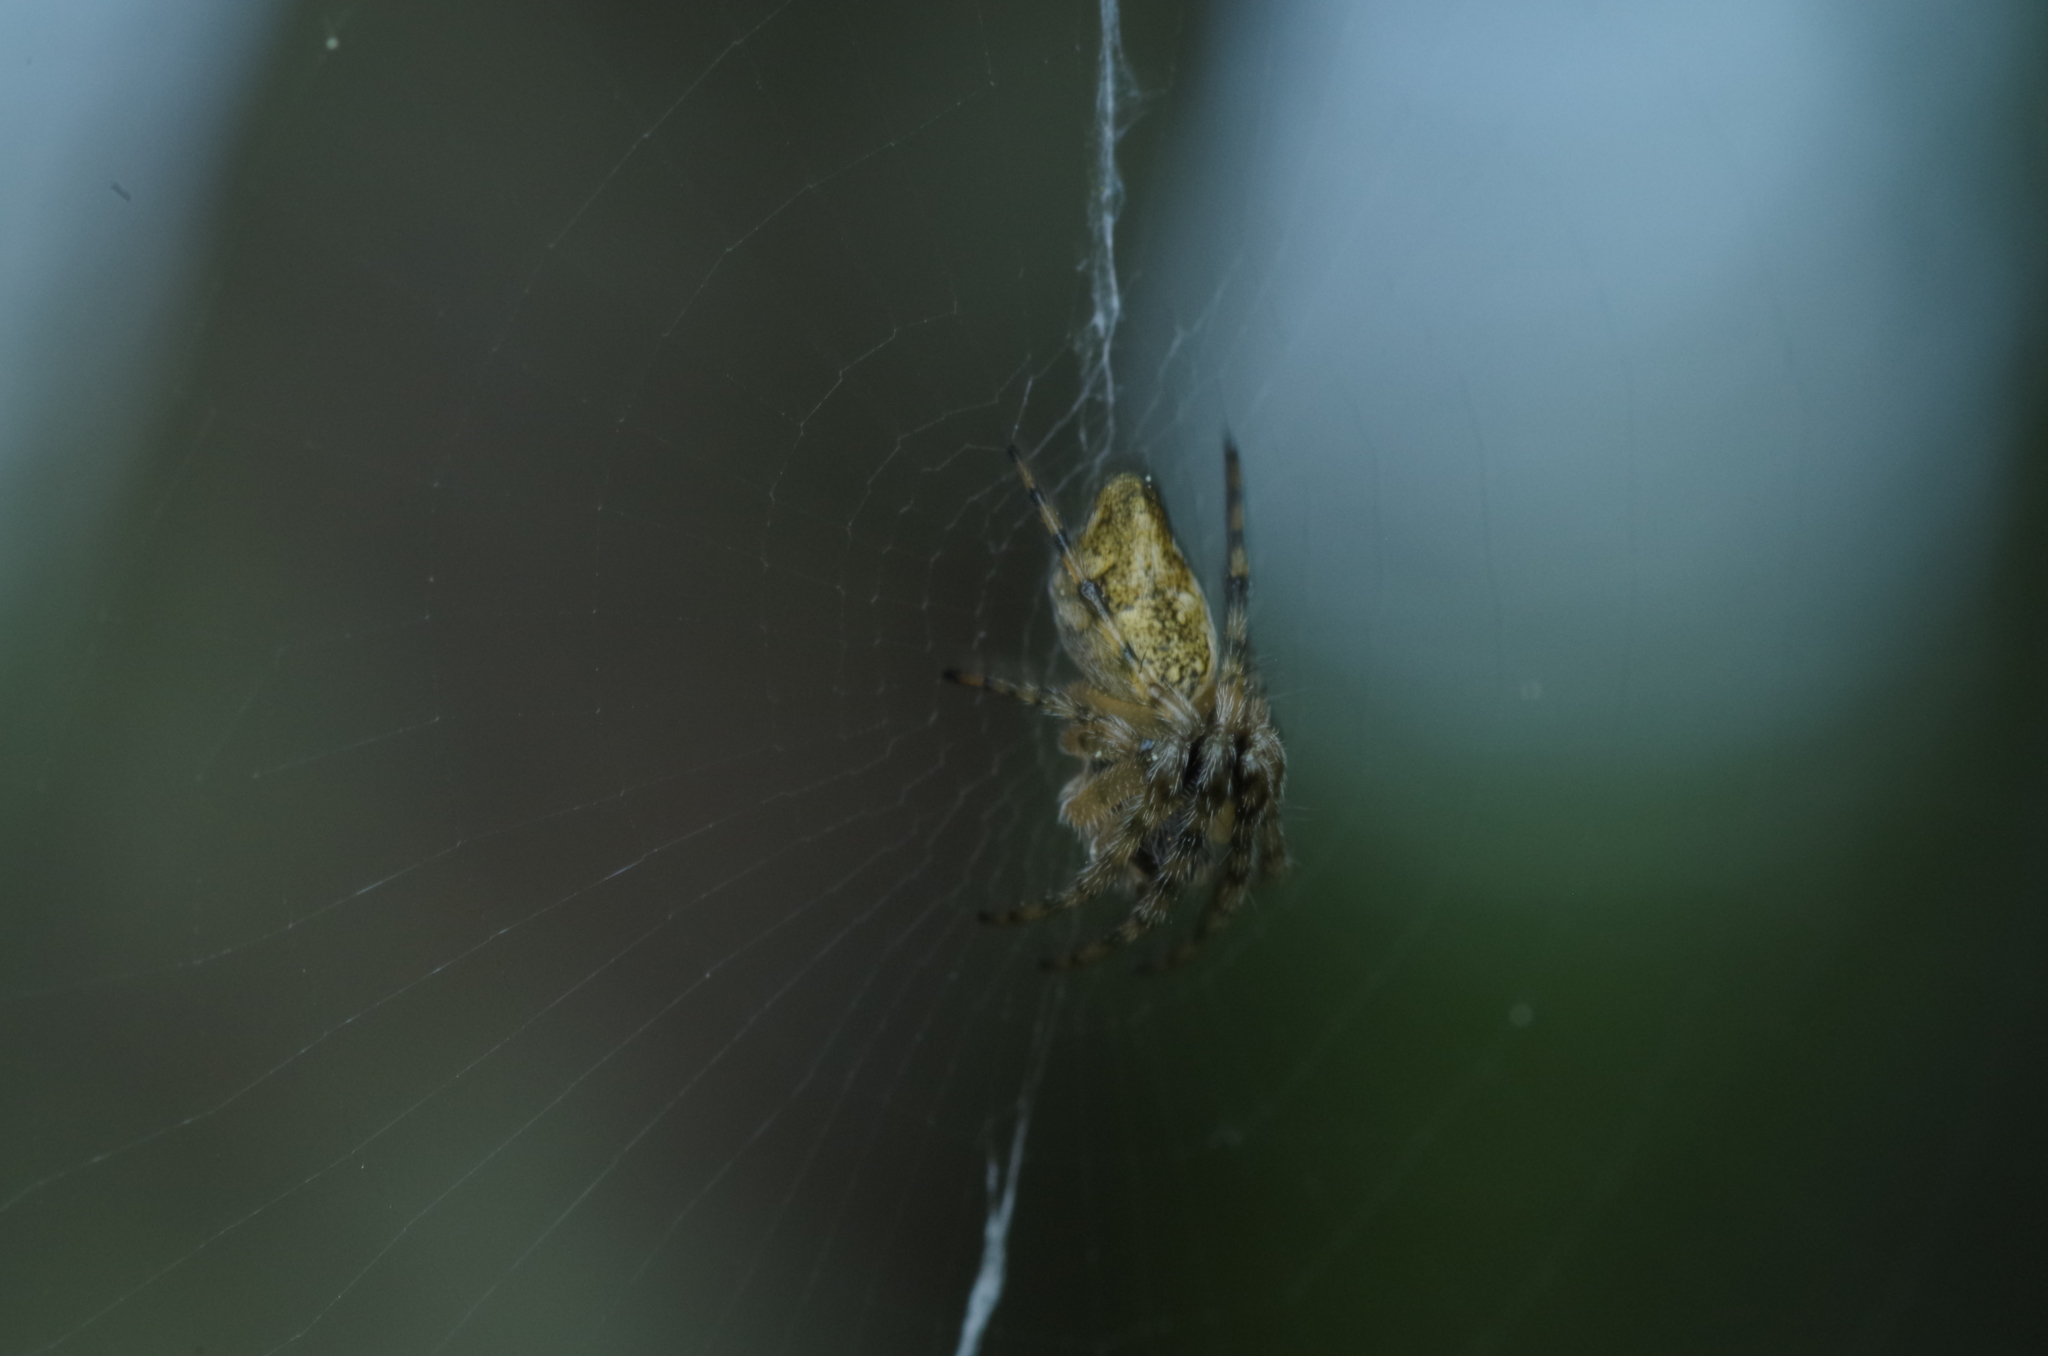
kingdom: Animalia
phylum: Arthropoda
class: Arachnida
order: Araneae
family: Araneidae
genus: Cyclosa
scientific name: Cyclosa conica
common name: Conical trashline orbweaver
